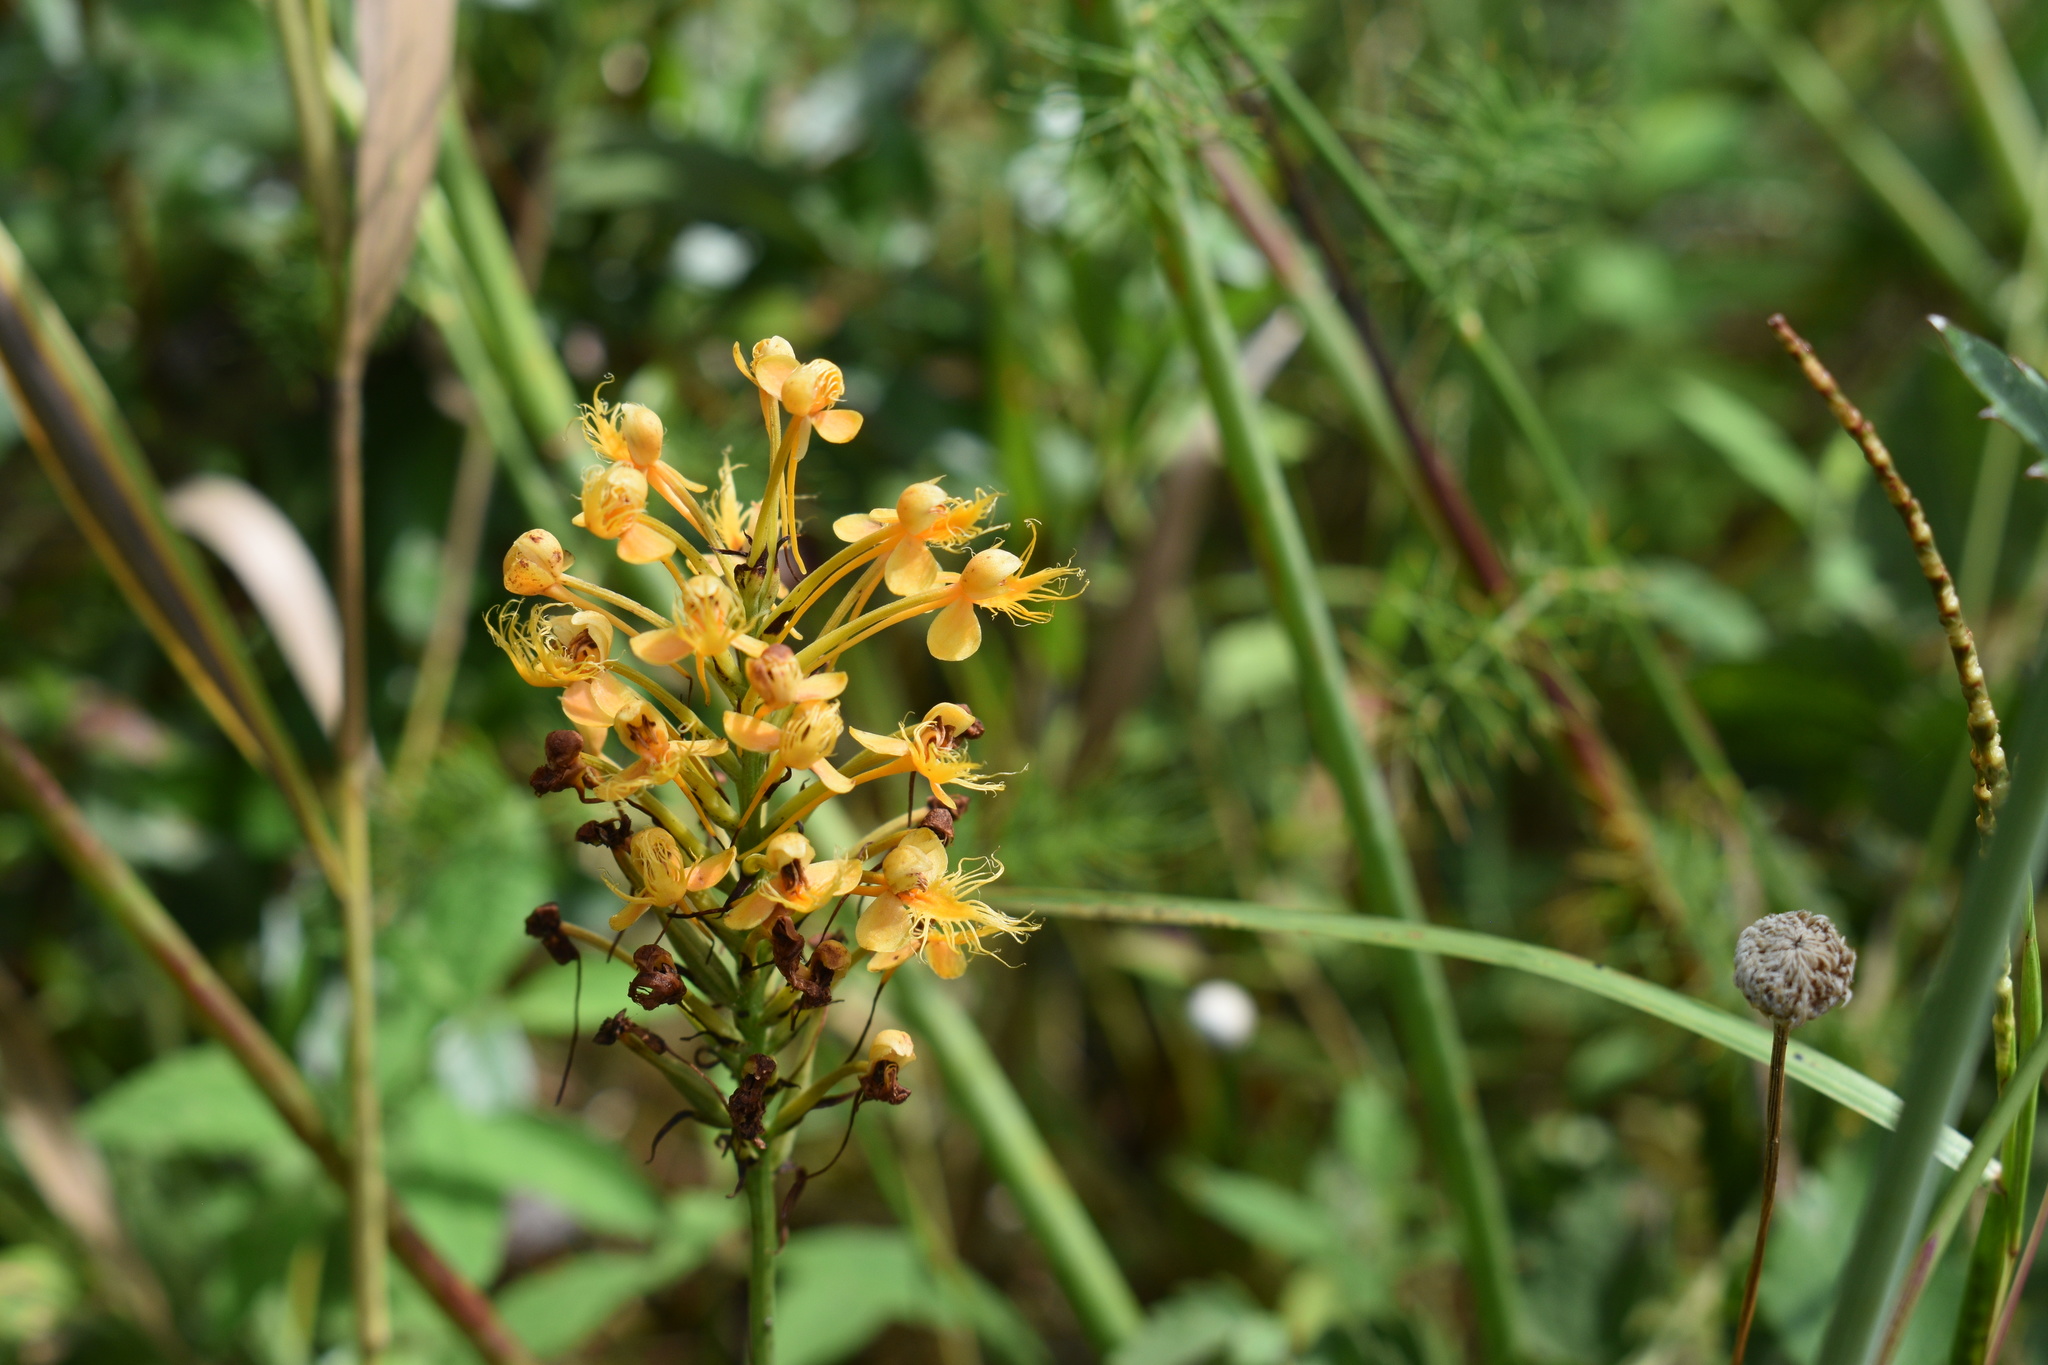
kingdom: Plantae
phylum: Tracheophyta
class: Liliopsida
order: Asparagales
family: Orchidaceae
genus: Platanthera
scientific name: Platanthera chapmanii
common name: Chapman’s fringed orchid
